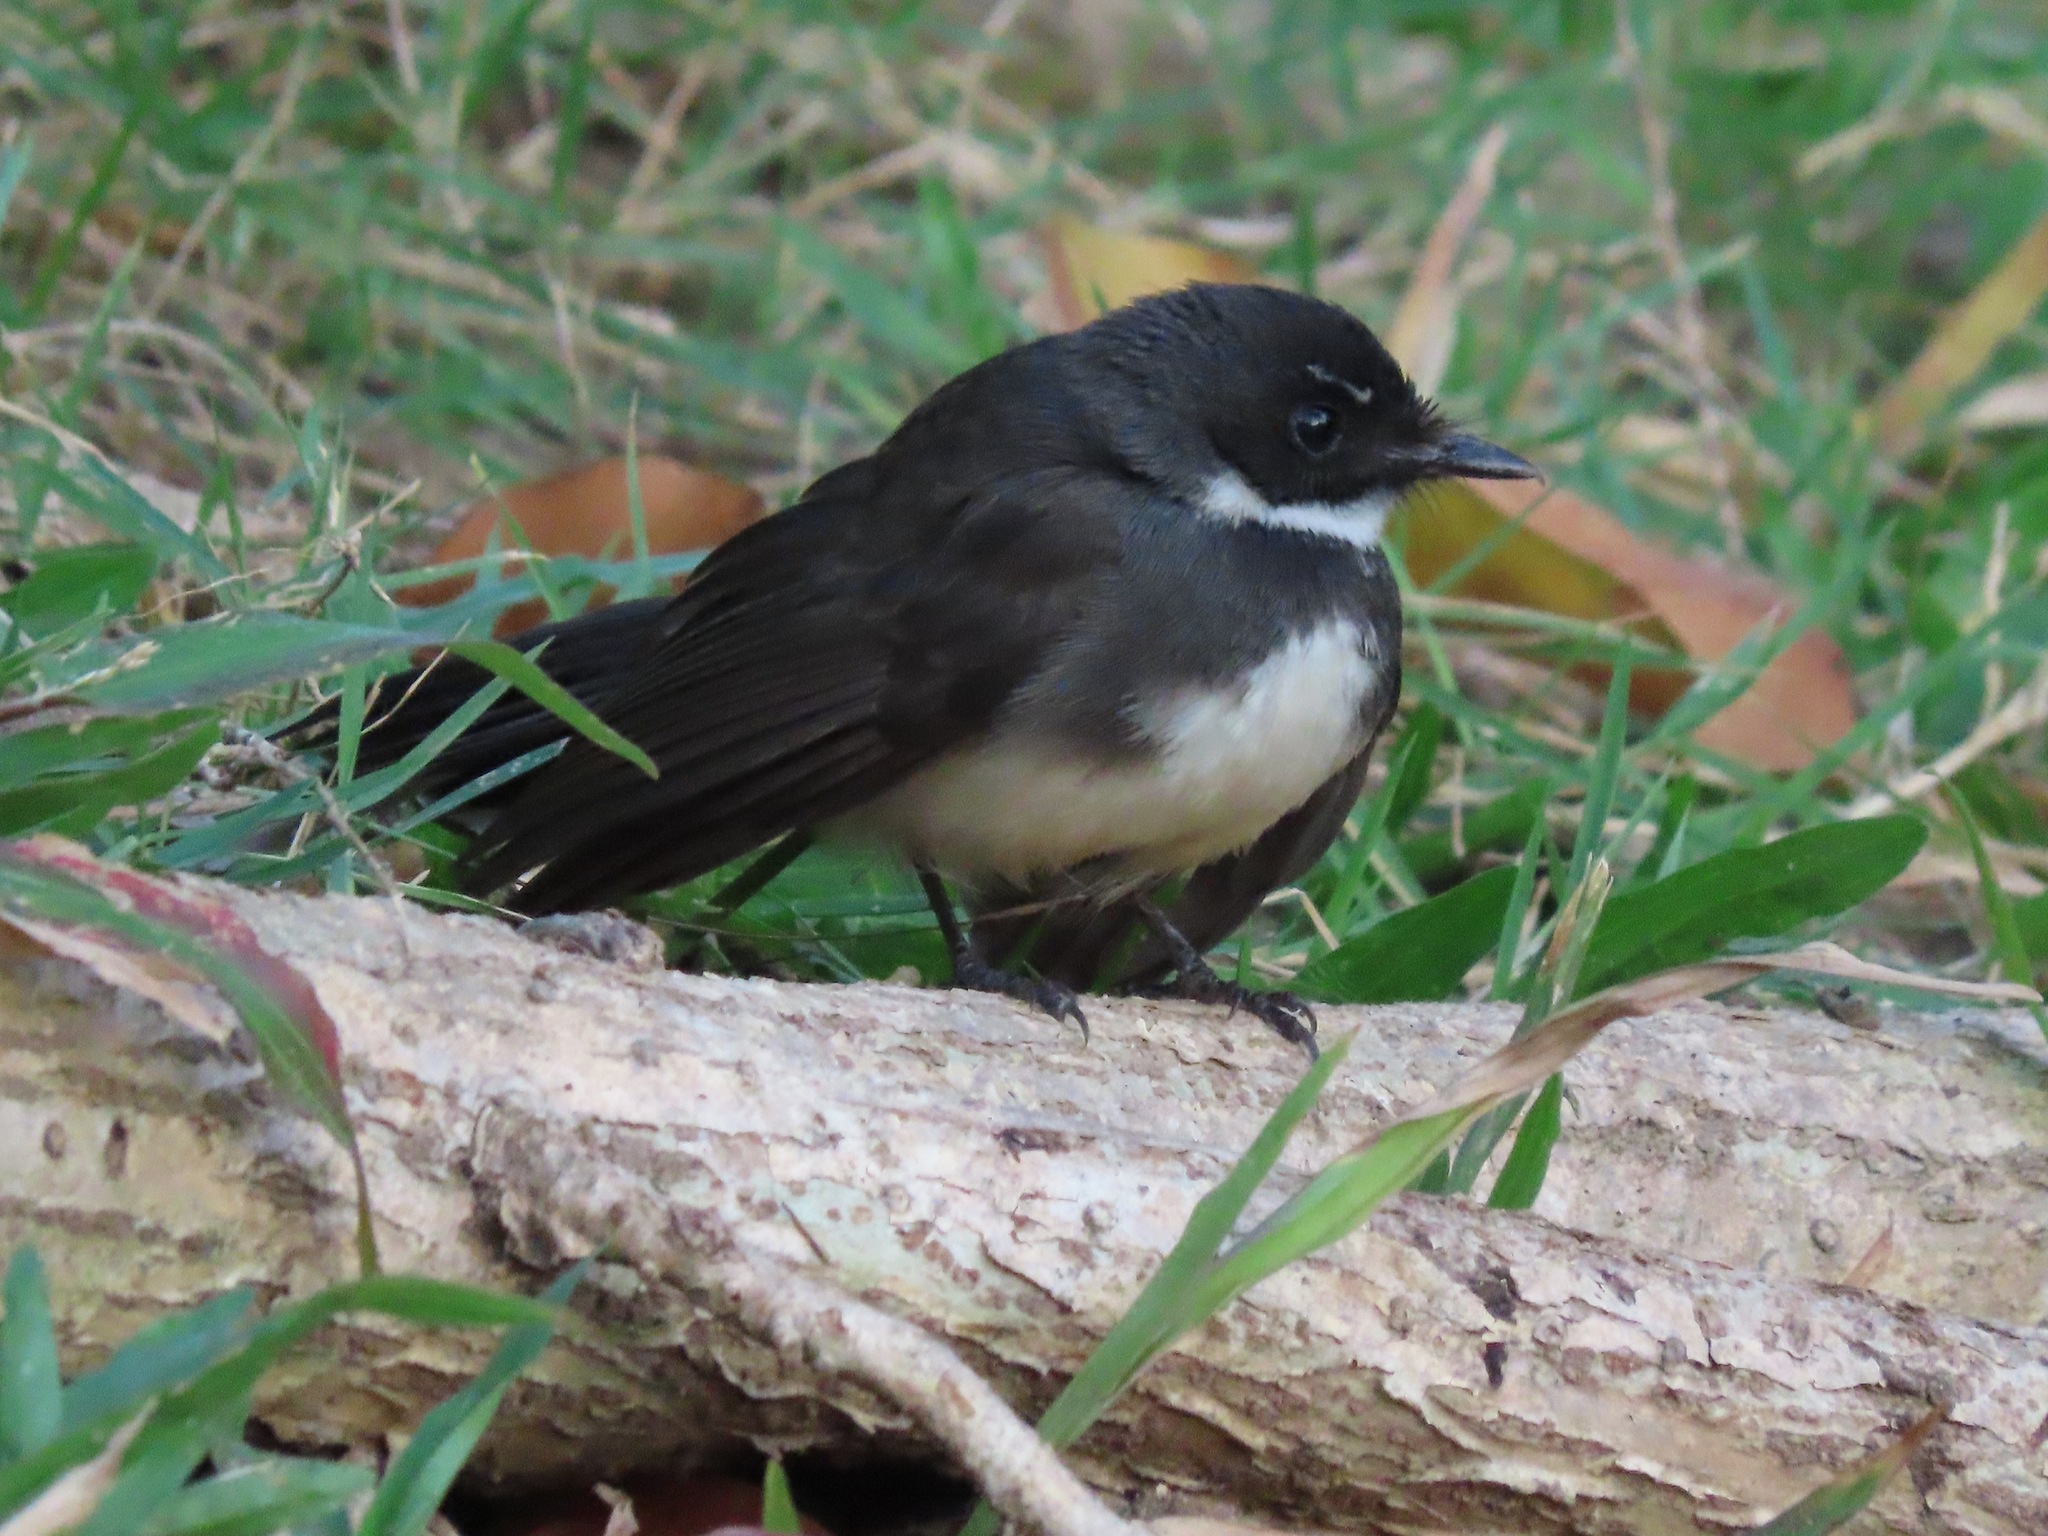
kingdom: Animalia
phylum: Chordata
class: Aves
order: Passeriformes
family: Rhipiduridae
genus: Rhipidura
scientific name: Rhipidura javanica
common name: Pied fantail
